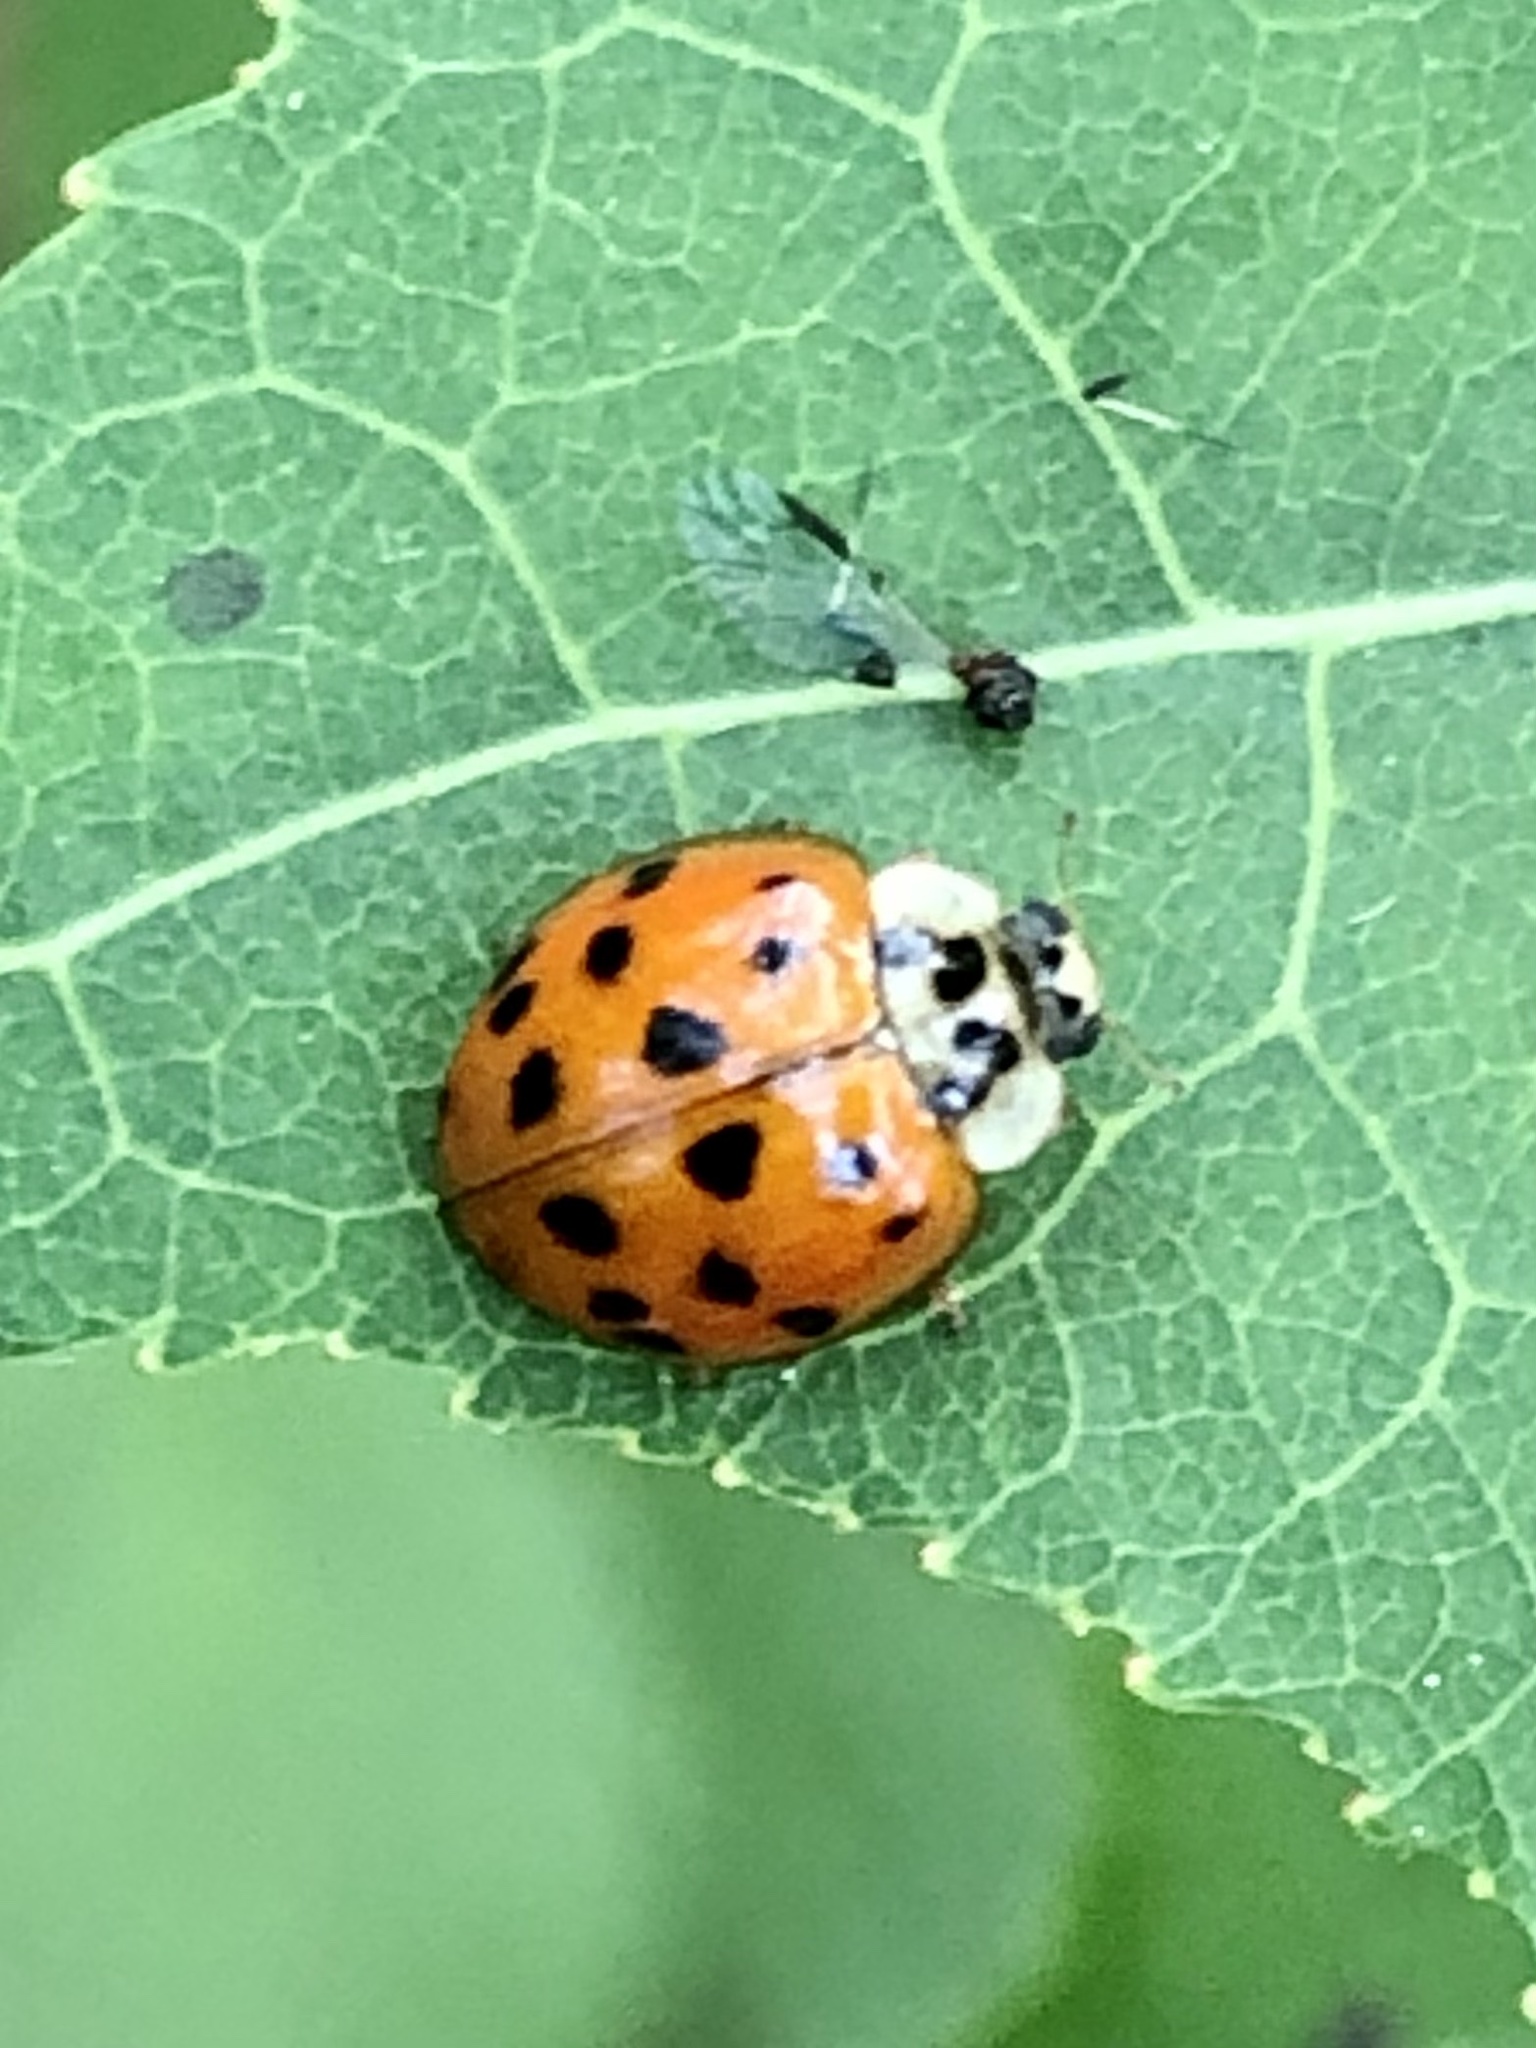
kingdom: Animalia
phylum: Arthropoda
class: Insecta
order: Coleoptera
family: Coccinellidae
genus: Harmonia
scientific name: Harmonia axyridis
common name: Harlequin ladybird
